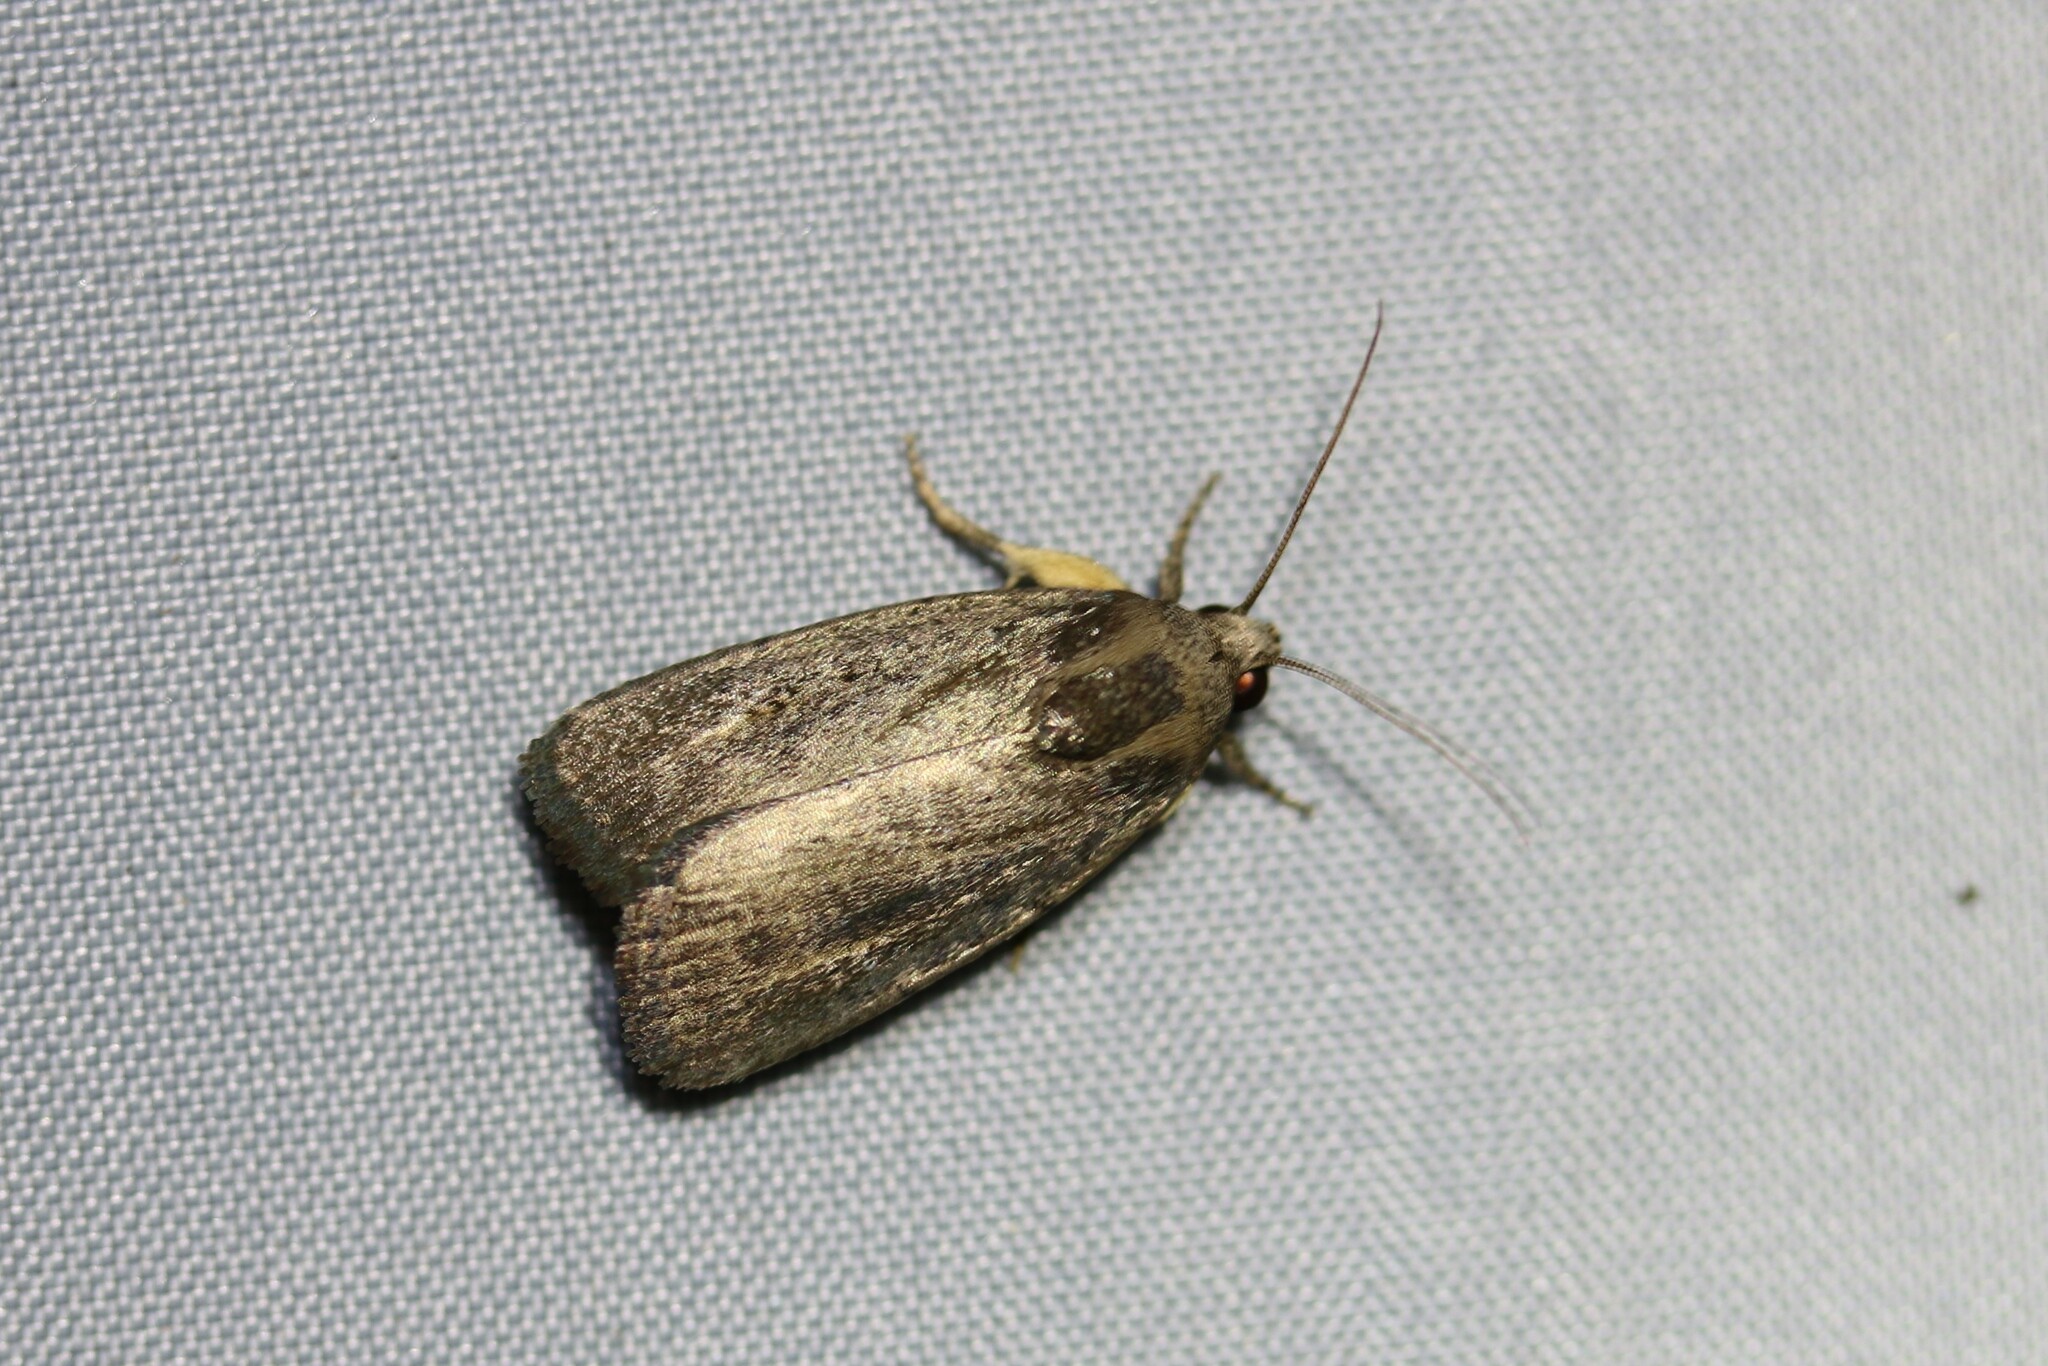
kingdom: Animalia
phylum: Arthropoda
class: Insecta
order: Lepidoptera
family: Noctuidae
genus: Athetis
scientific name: Athetis hospes
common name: Porter's rustic
